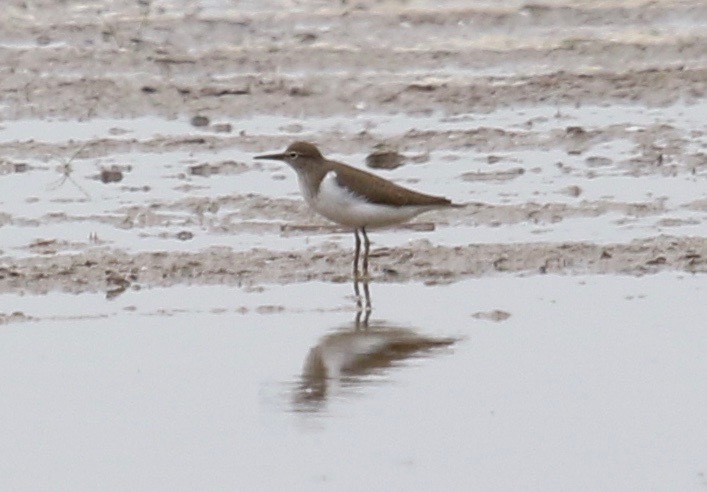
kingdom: Animalia
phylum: Chordata
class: Aves
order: Charadriiformes
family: Scolopacidae
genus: Actitis
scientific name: Actitis hypoleucos
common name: Common sandpiper
